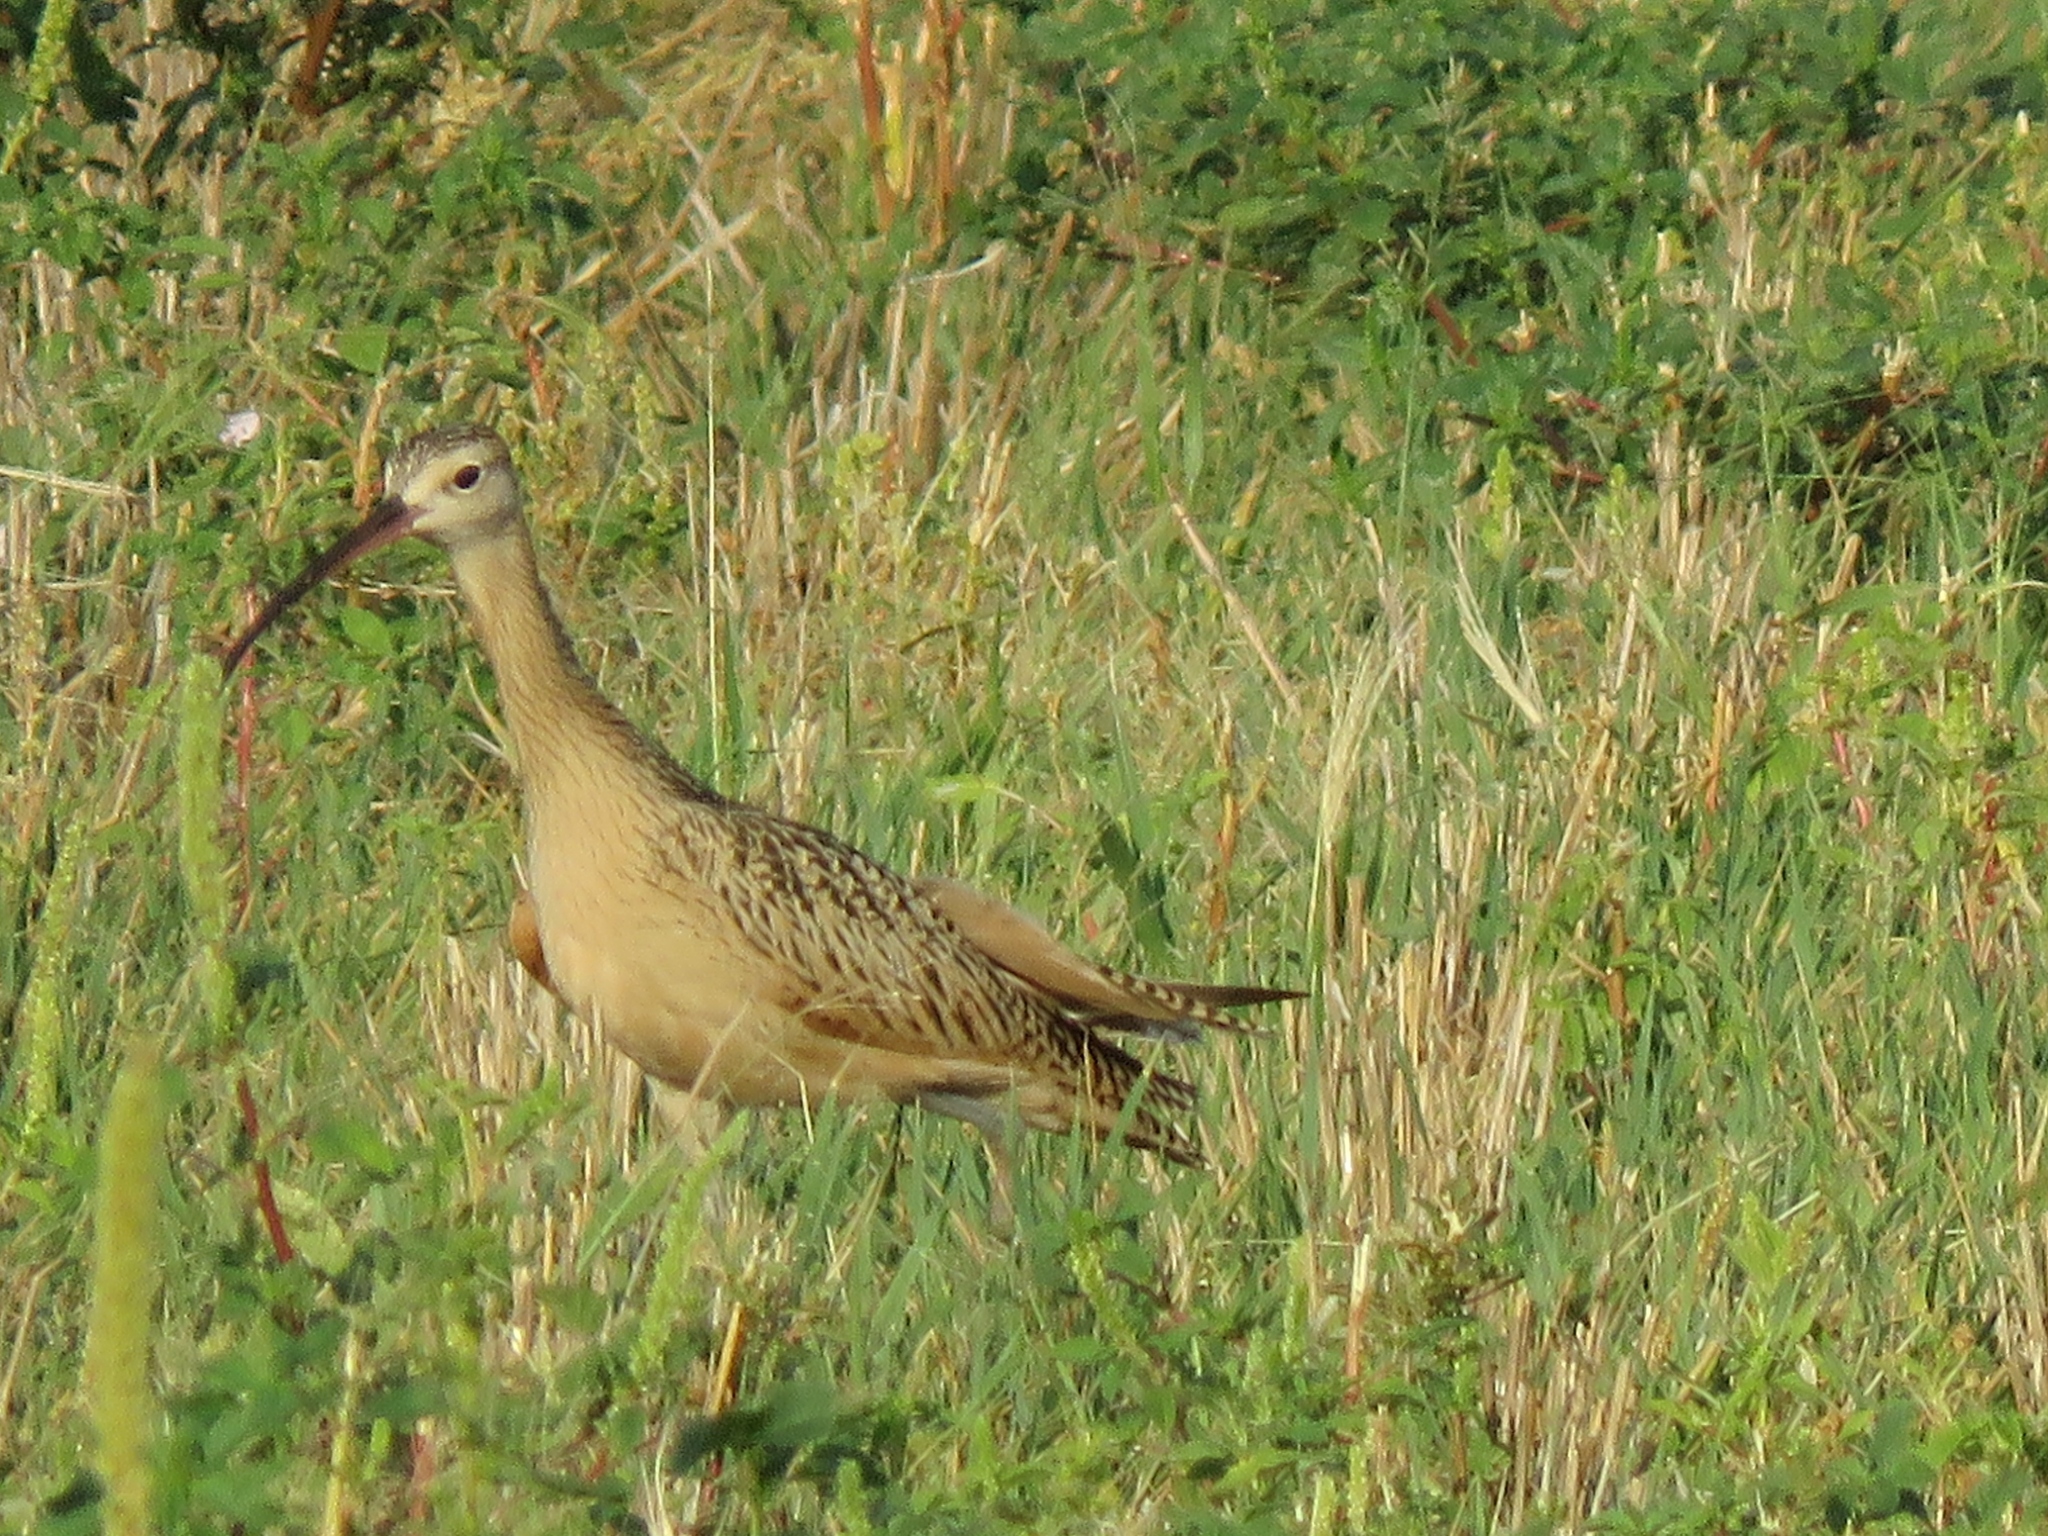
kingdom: Animalia
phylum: Chordata
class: Aves
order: Charadriiformes
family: Scolopacidae
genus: Numenius
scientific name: Numenius americanus
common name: Long-billed curlew
